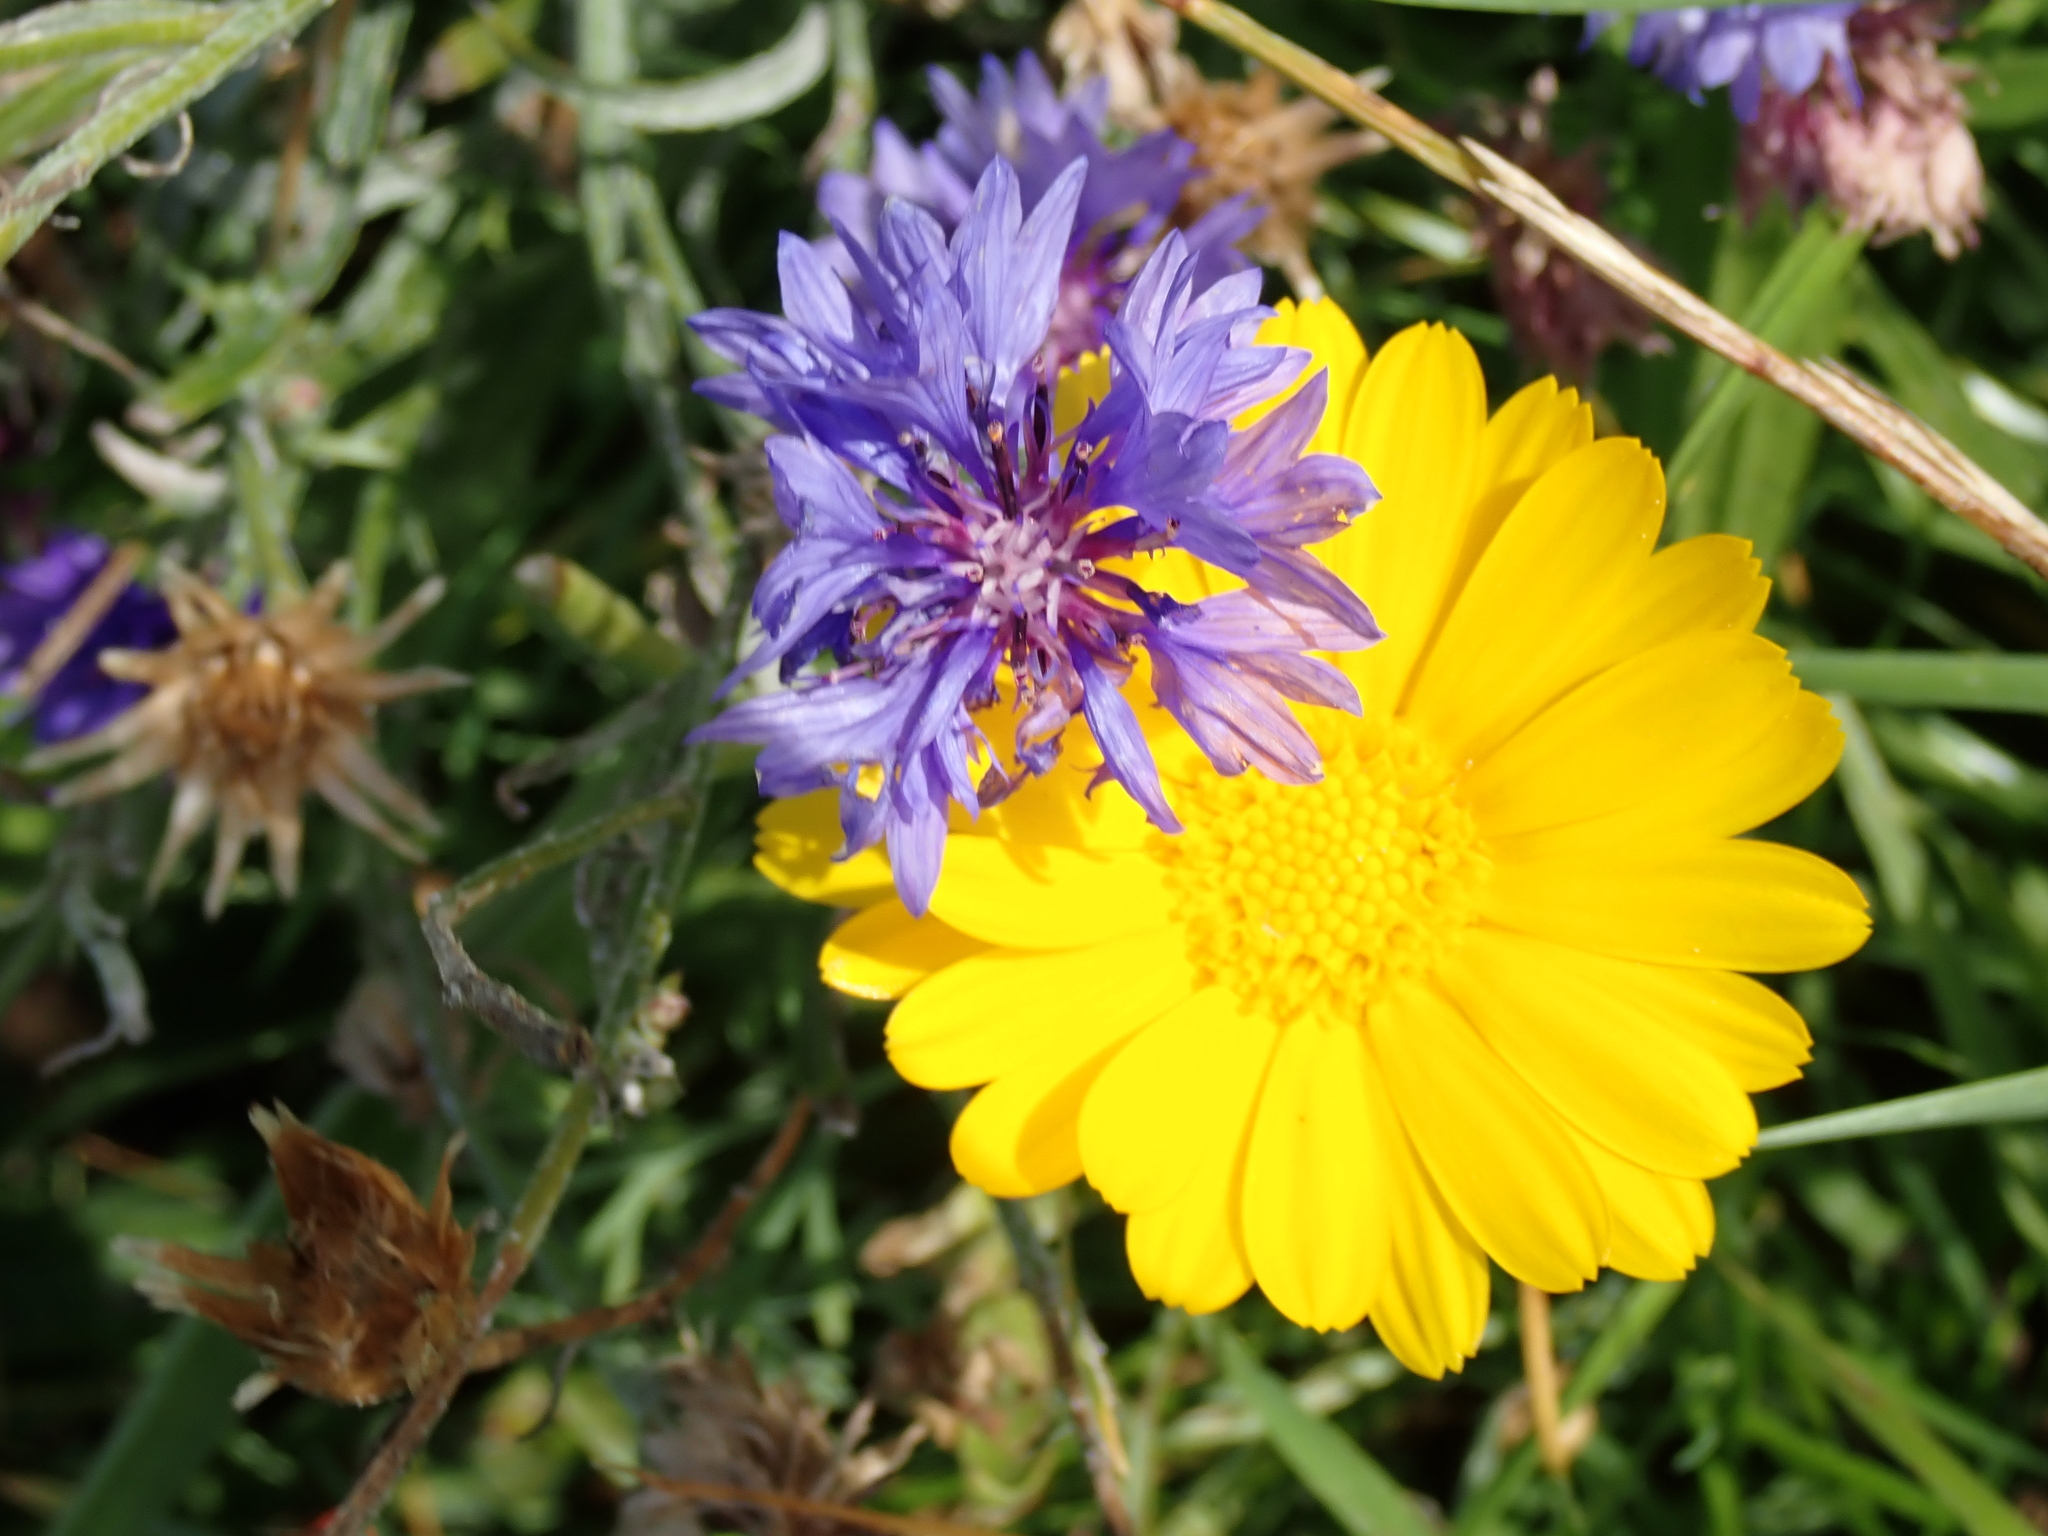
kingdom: Plantae
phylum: Tracheophyta
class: Magnoliopsida
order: Asterales
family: Asteraceae
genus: Centaurea
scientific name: Centaurea cyanus
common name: Cornflower
